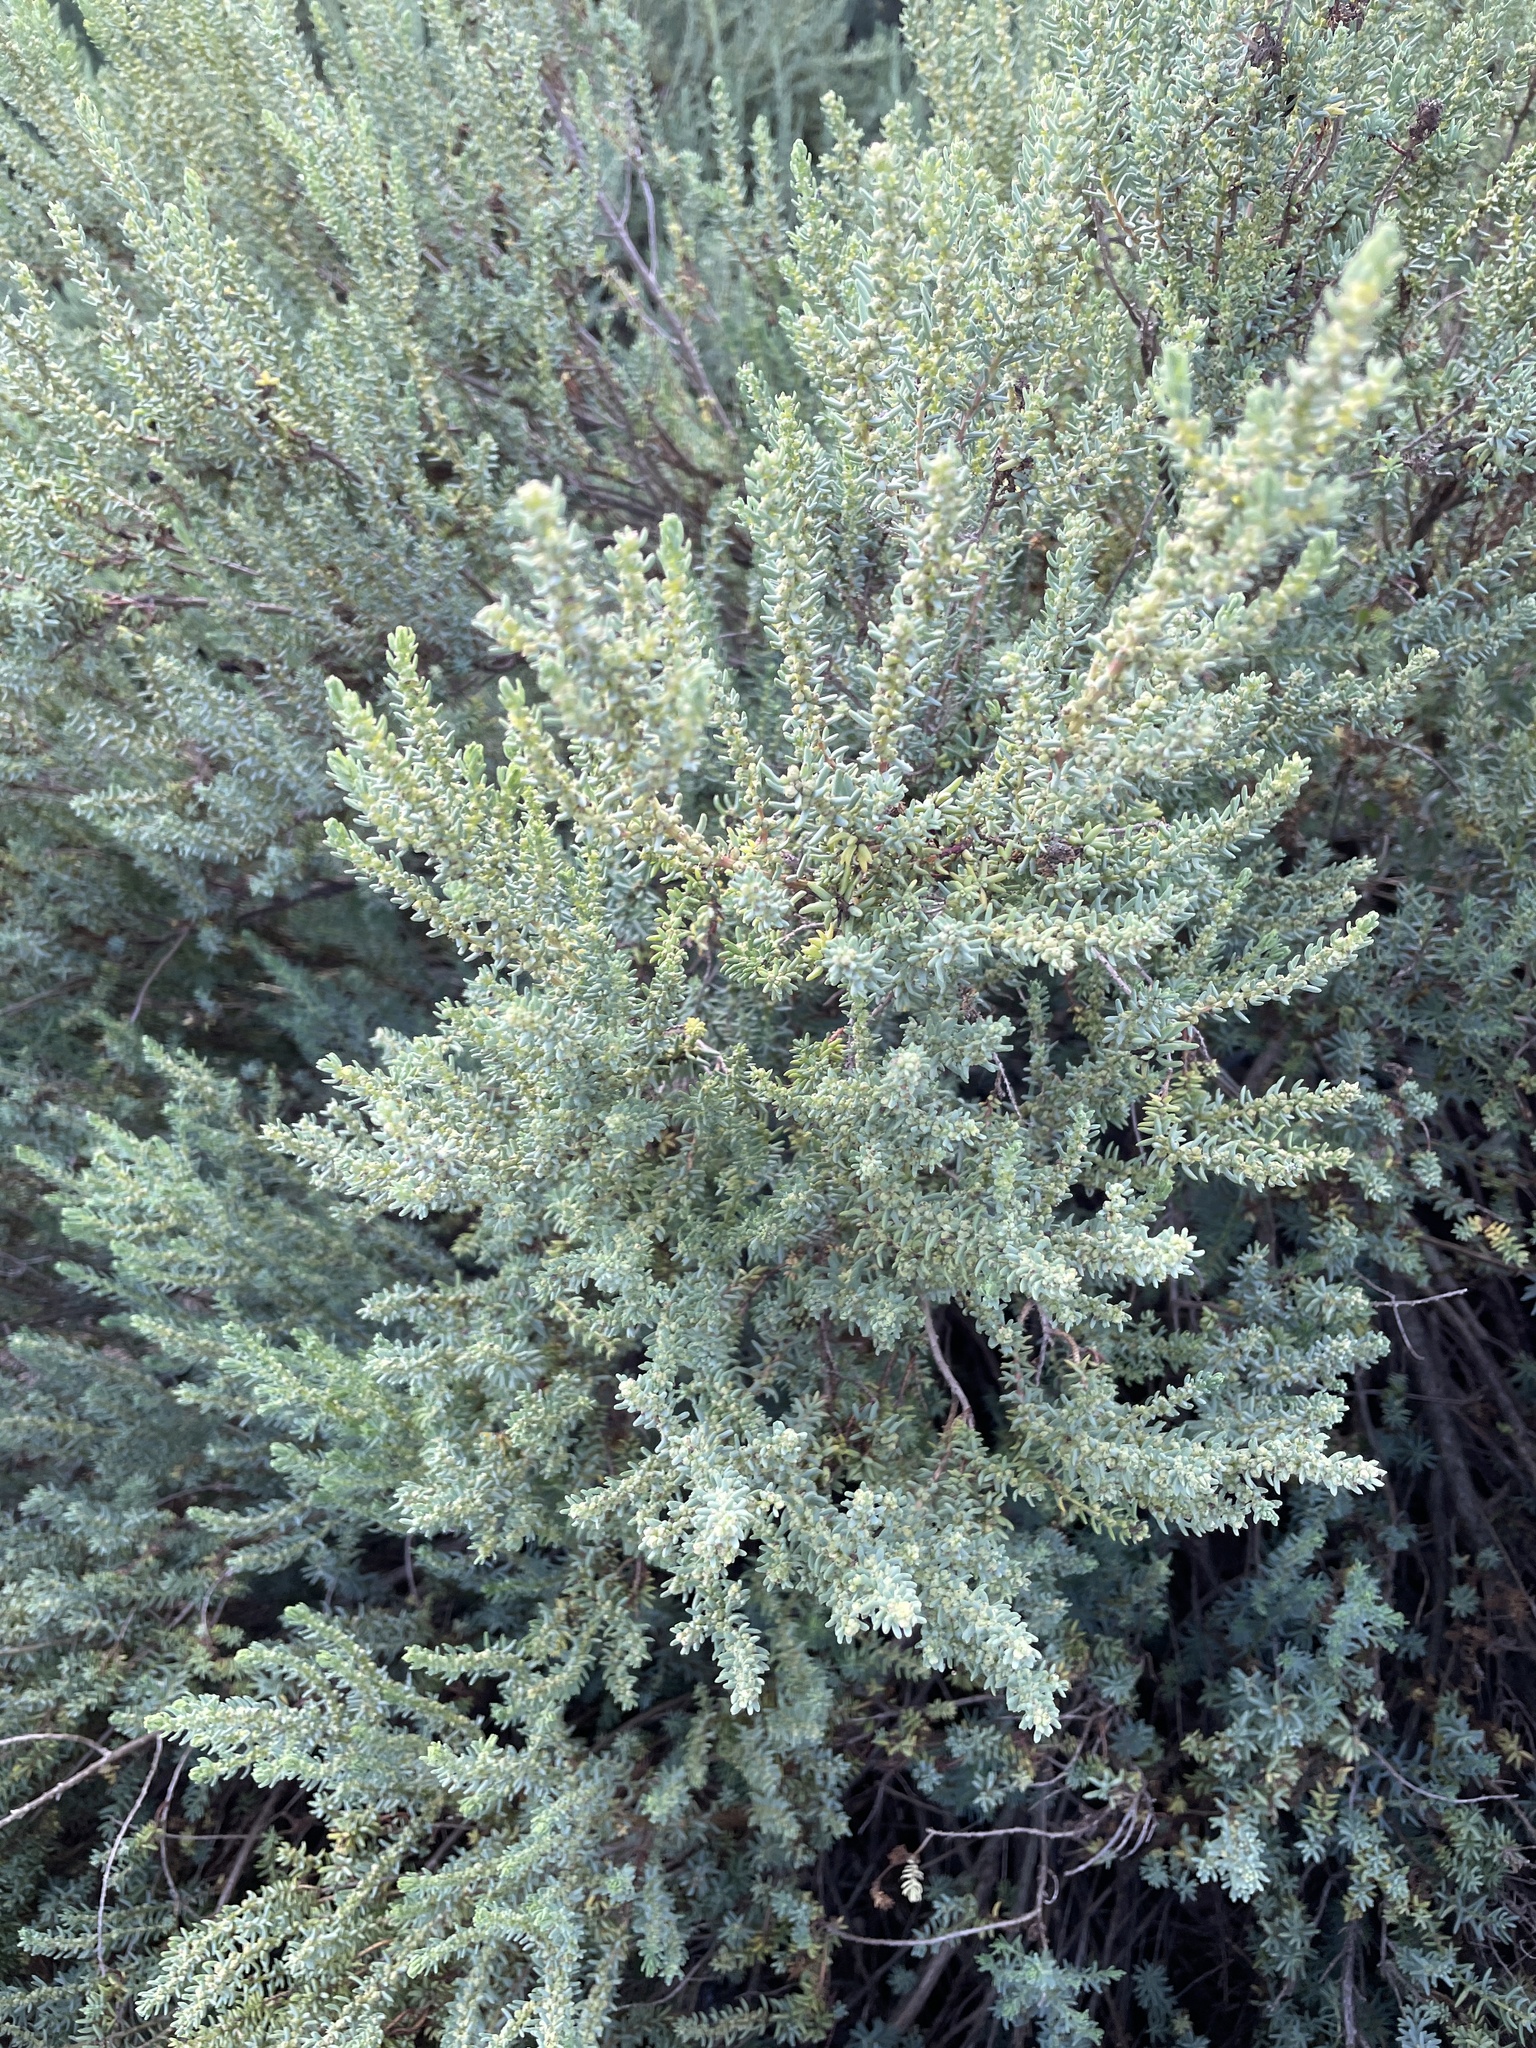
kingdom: Plantae
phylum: Tracheophyta
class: Magnoliopsida
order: Caryophyllales
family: Amaranthaceae
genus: Suaeda
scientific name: Suaeda vera
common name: Shrubby sea-blite
